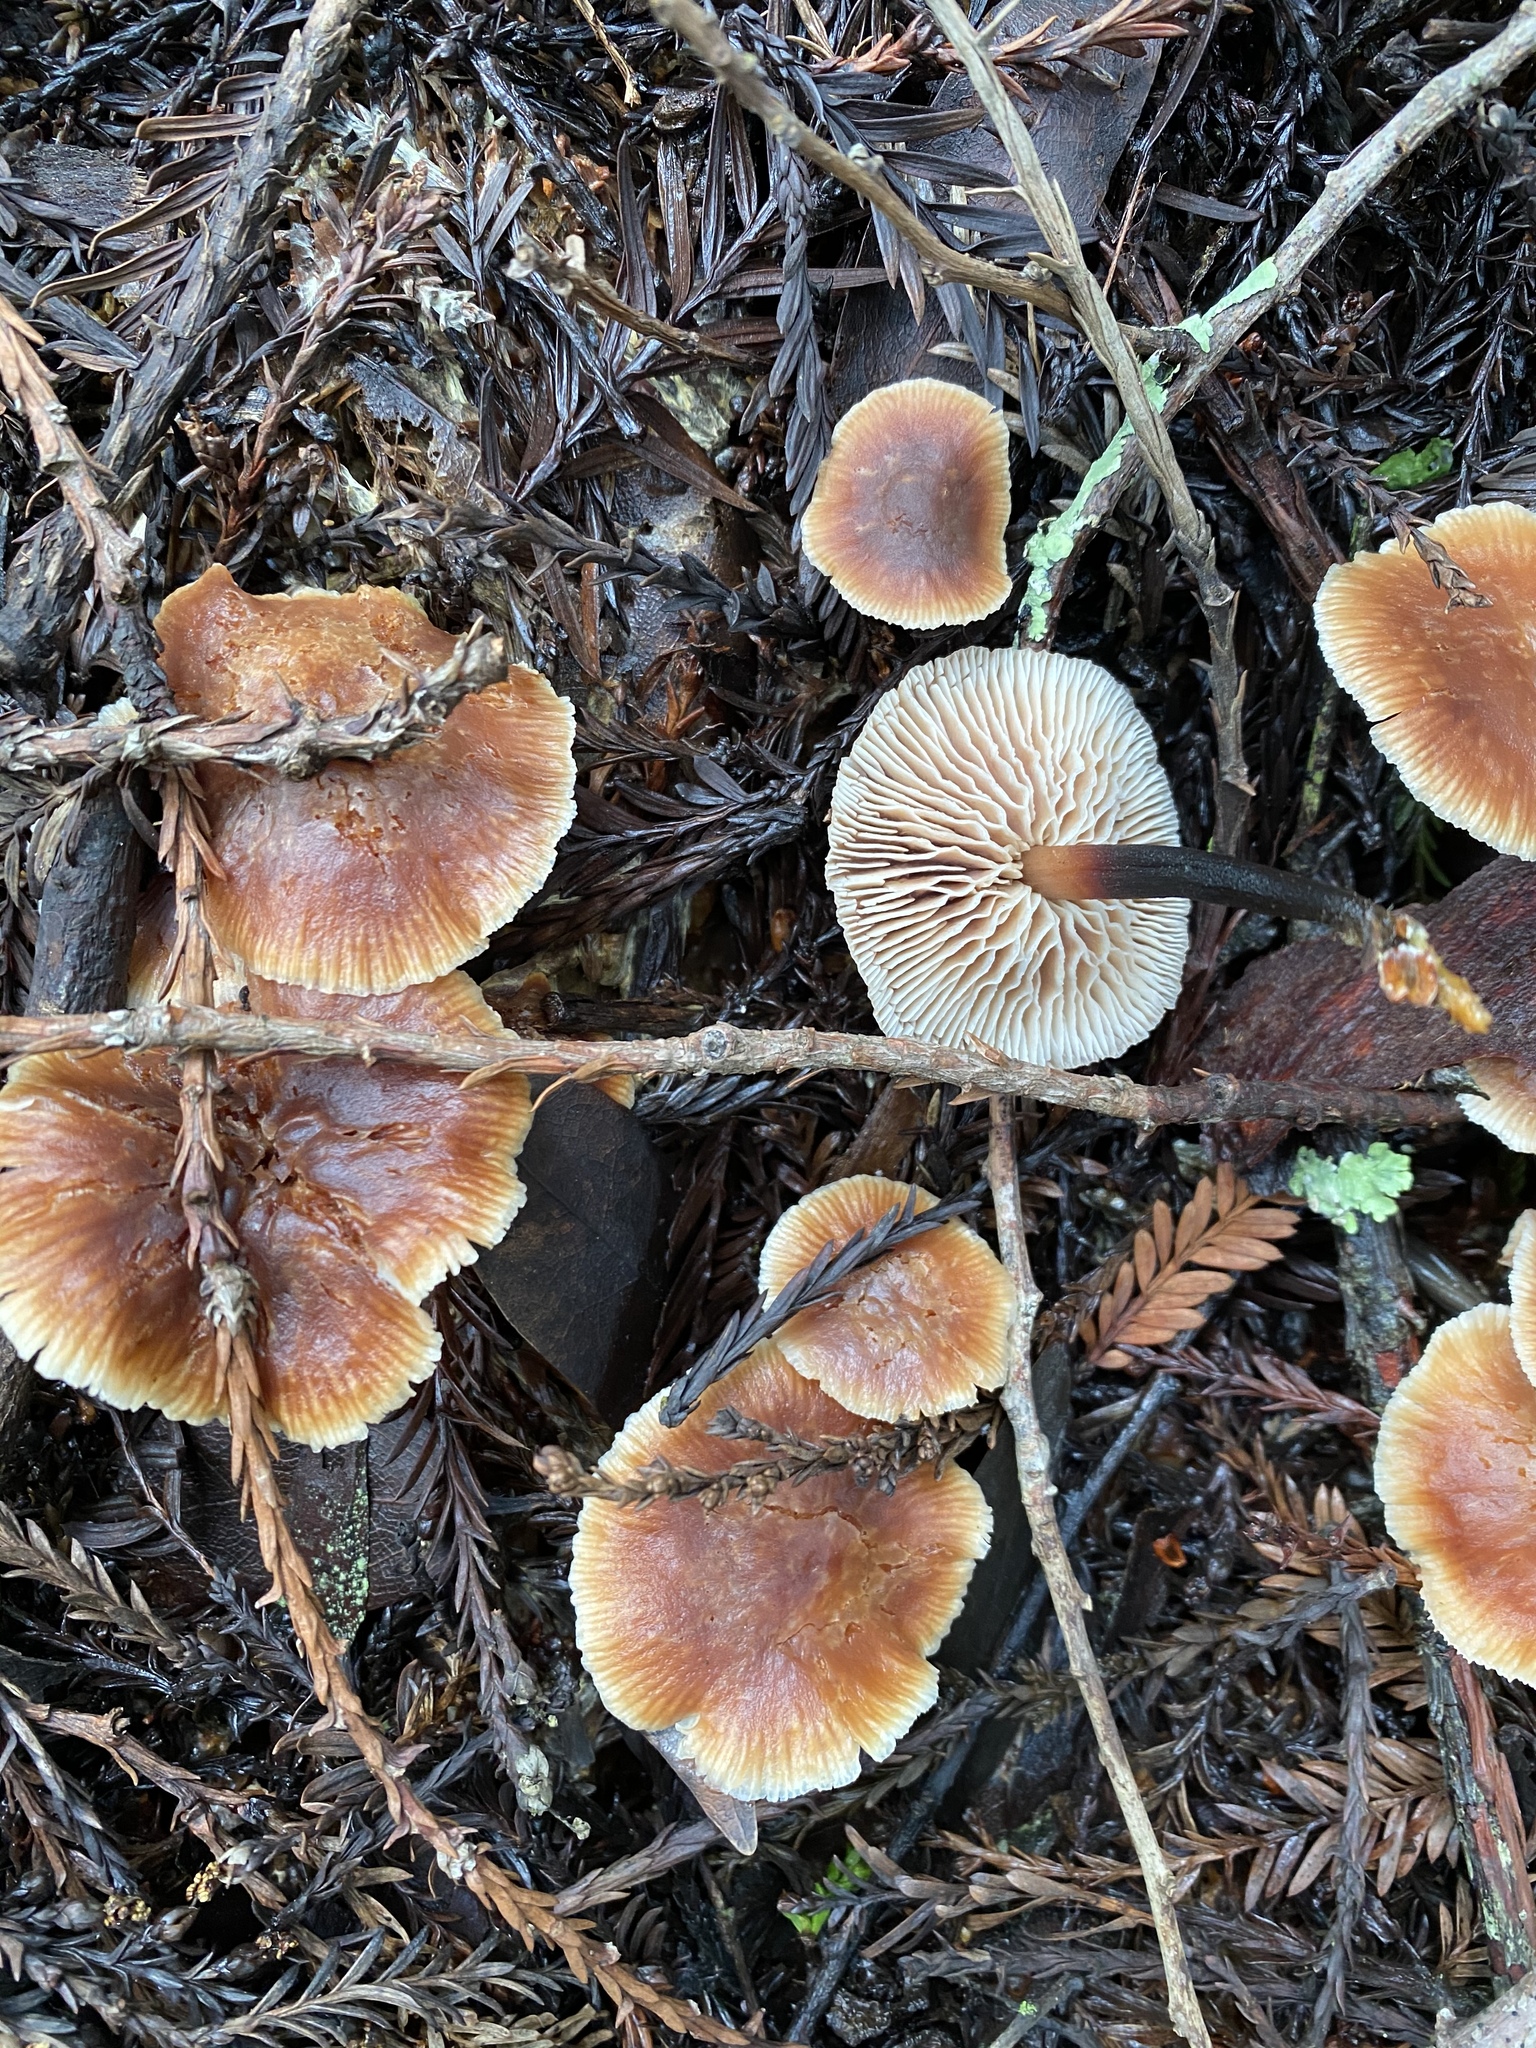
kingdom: Fungi
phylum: Basidiomycota
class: Agaricomycetes
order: Agaricales
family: Omphalotaceae
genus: Gymnopus
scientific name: Gymnopus brassicolens
